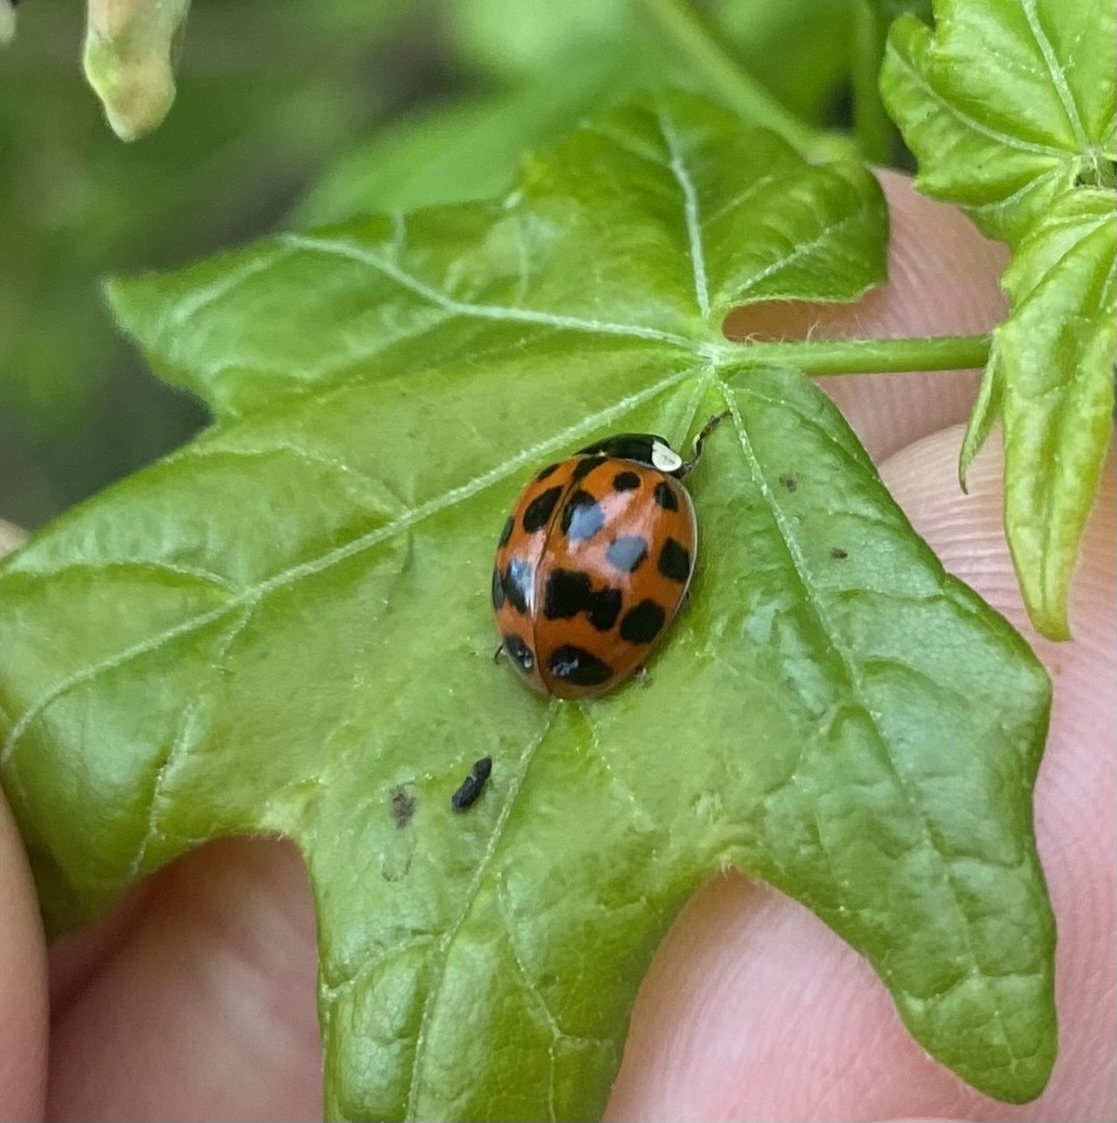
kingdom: Animalia
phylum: Arthropoda
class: Insecta
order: Coleoptera
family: Coccinellidae
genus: Harmonia
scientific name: Harmonia axyridis
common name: Harlequin ladybird
